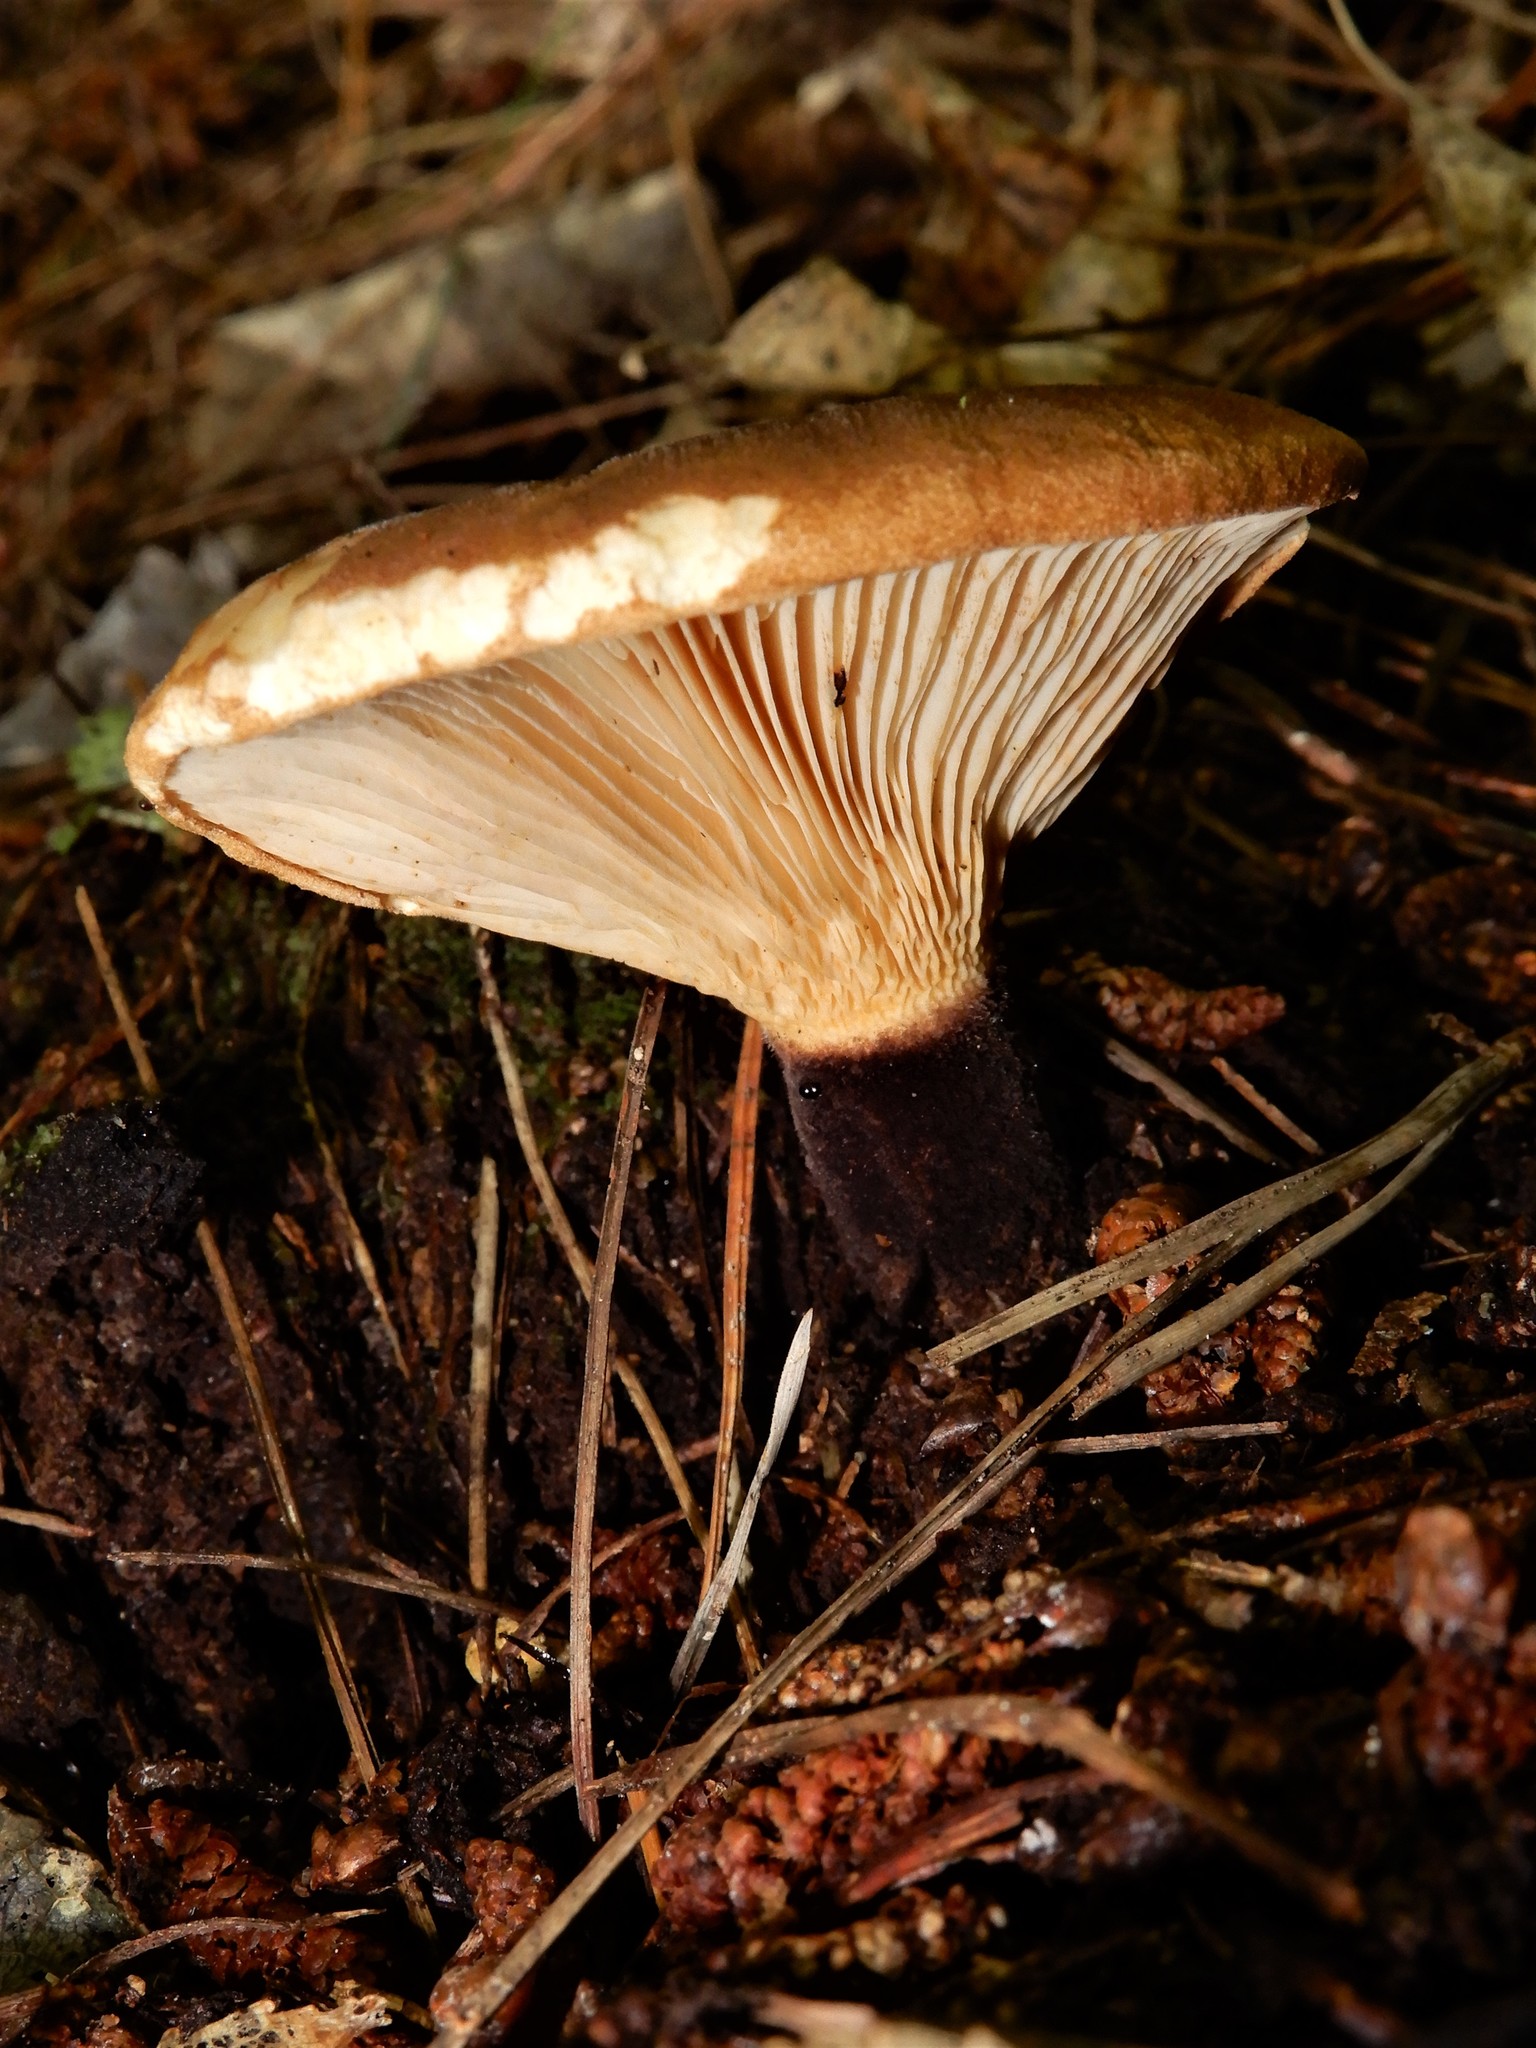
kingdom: Fungi
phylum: Basidiomycota
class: Agaricomycetes
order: Boletales
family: Tapinellaceae
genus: Tapinella
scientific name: Tapinella atrotomentosa
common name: Velvet rollrim
